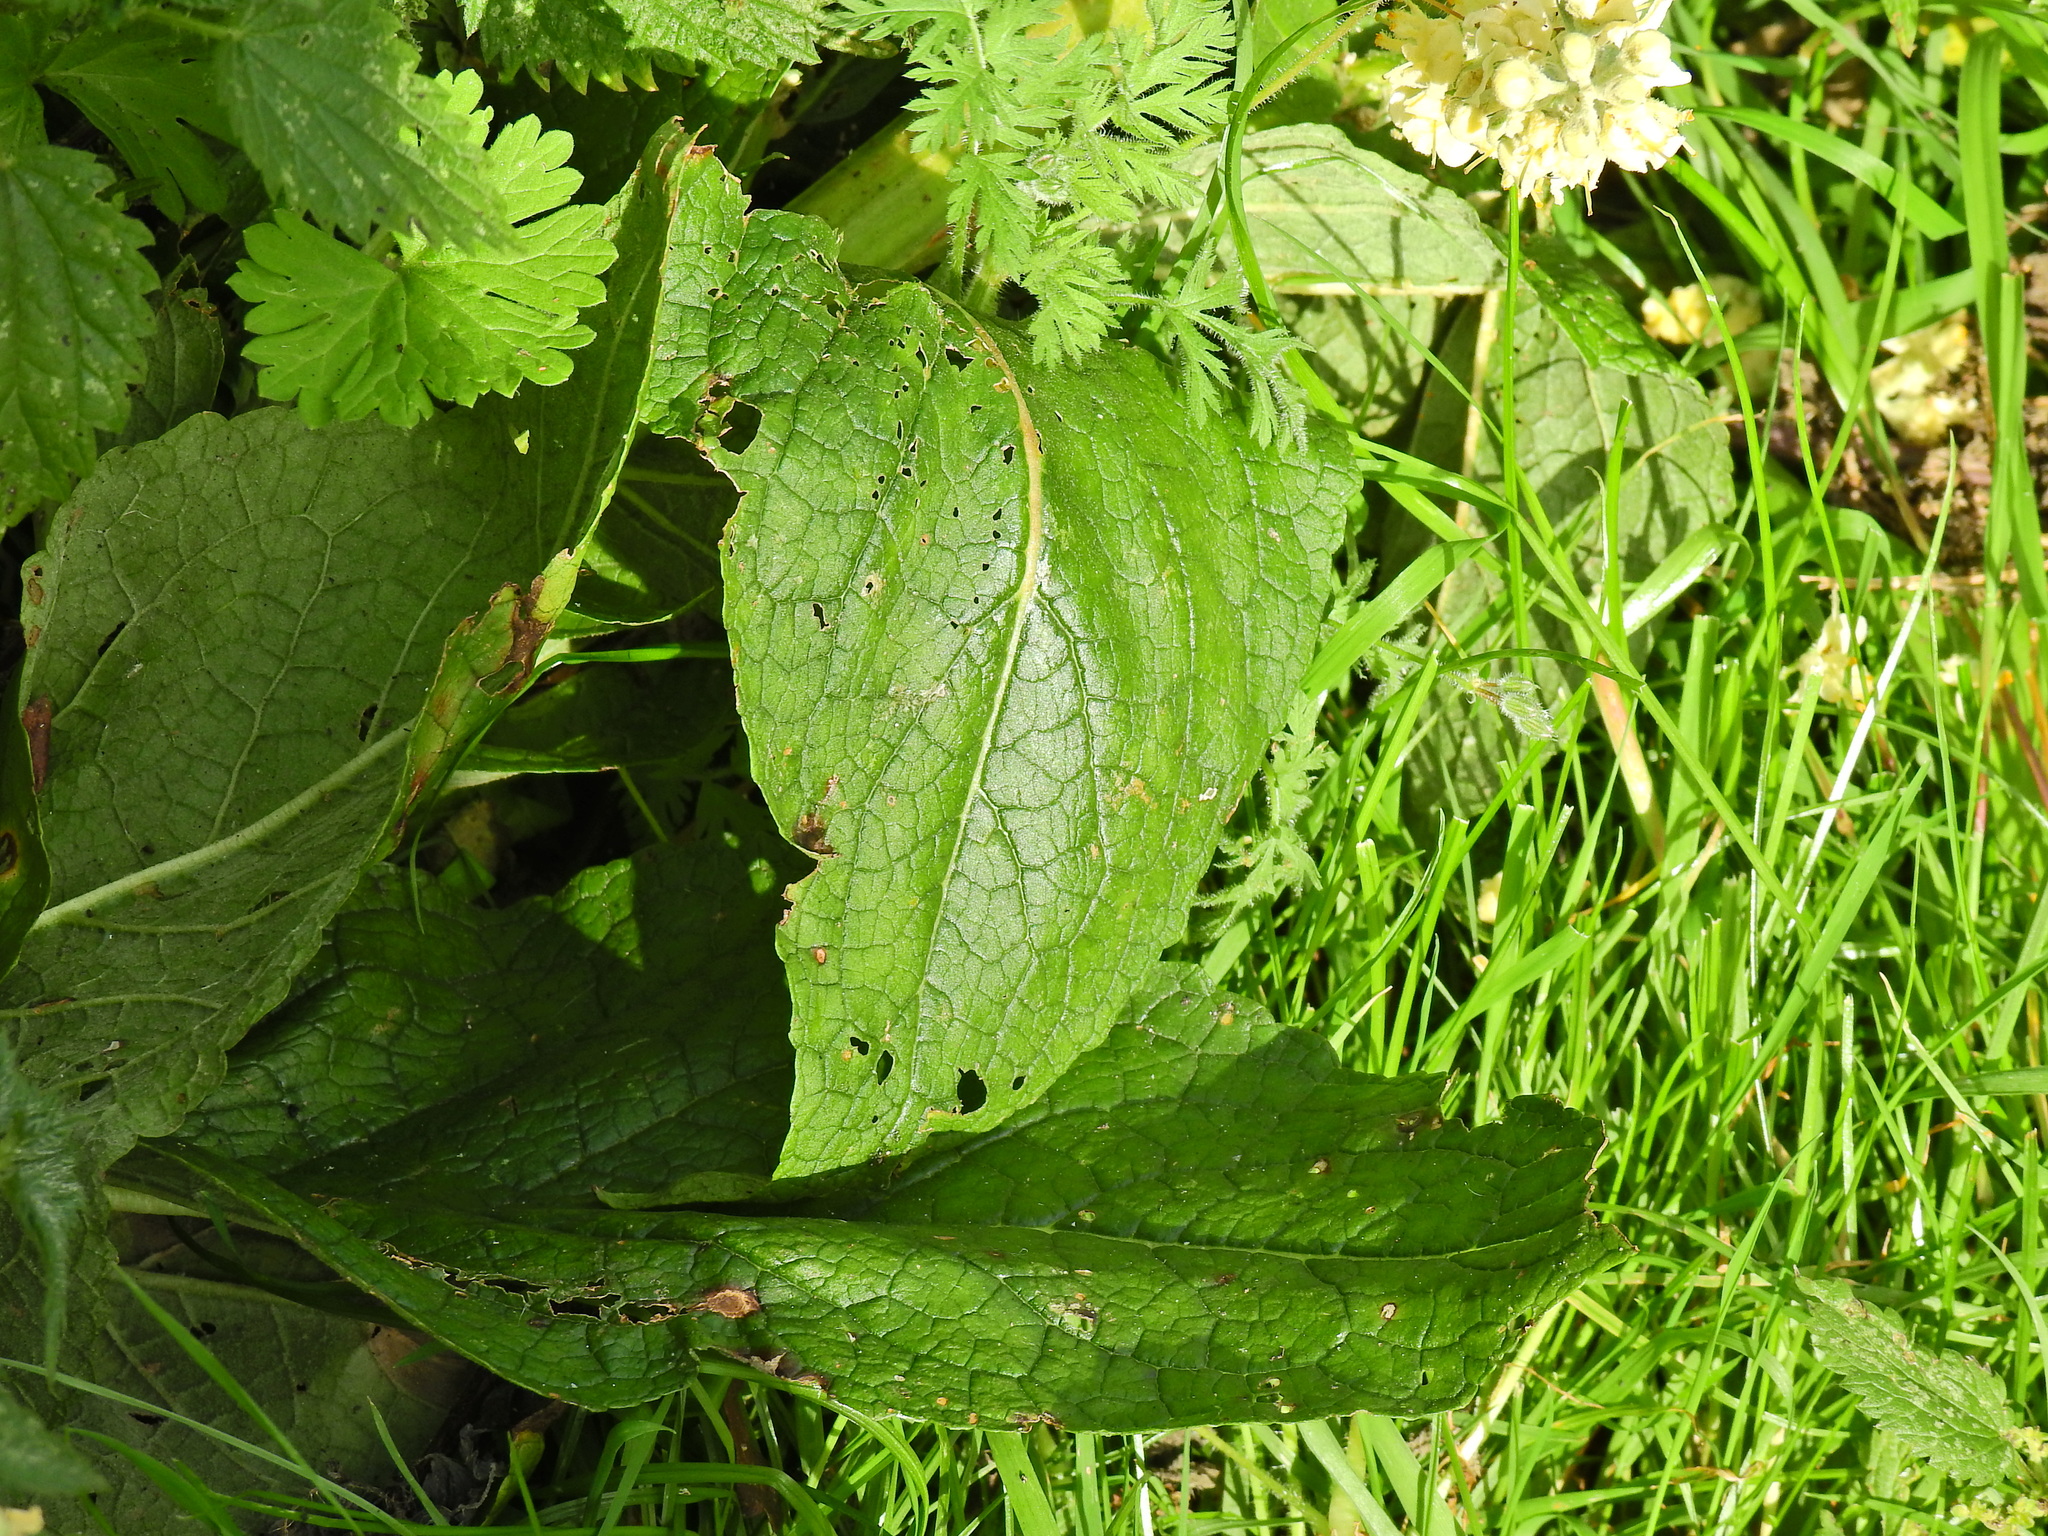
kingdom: Plantae
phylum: Tracheophyta
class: Magnoliopsida
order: Lamiales
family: Scrophulariaceae
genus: Verbascum
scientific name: Verbascum lychnitis
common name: White mullein
